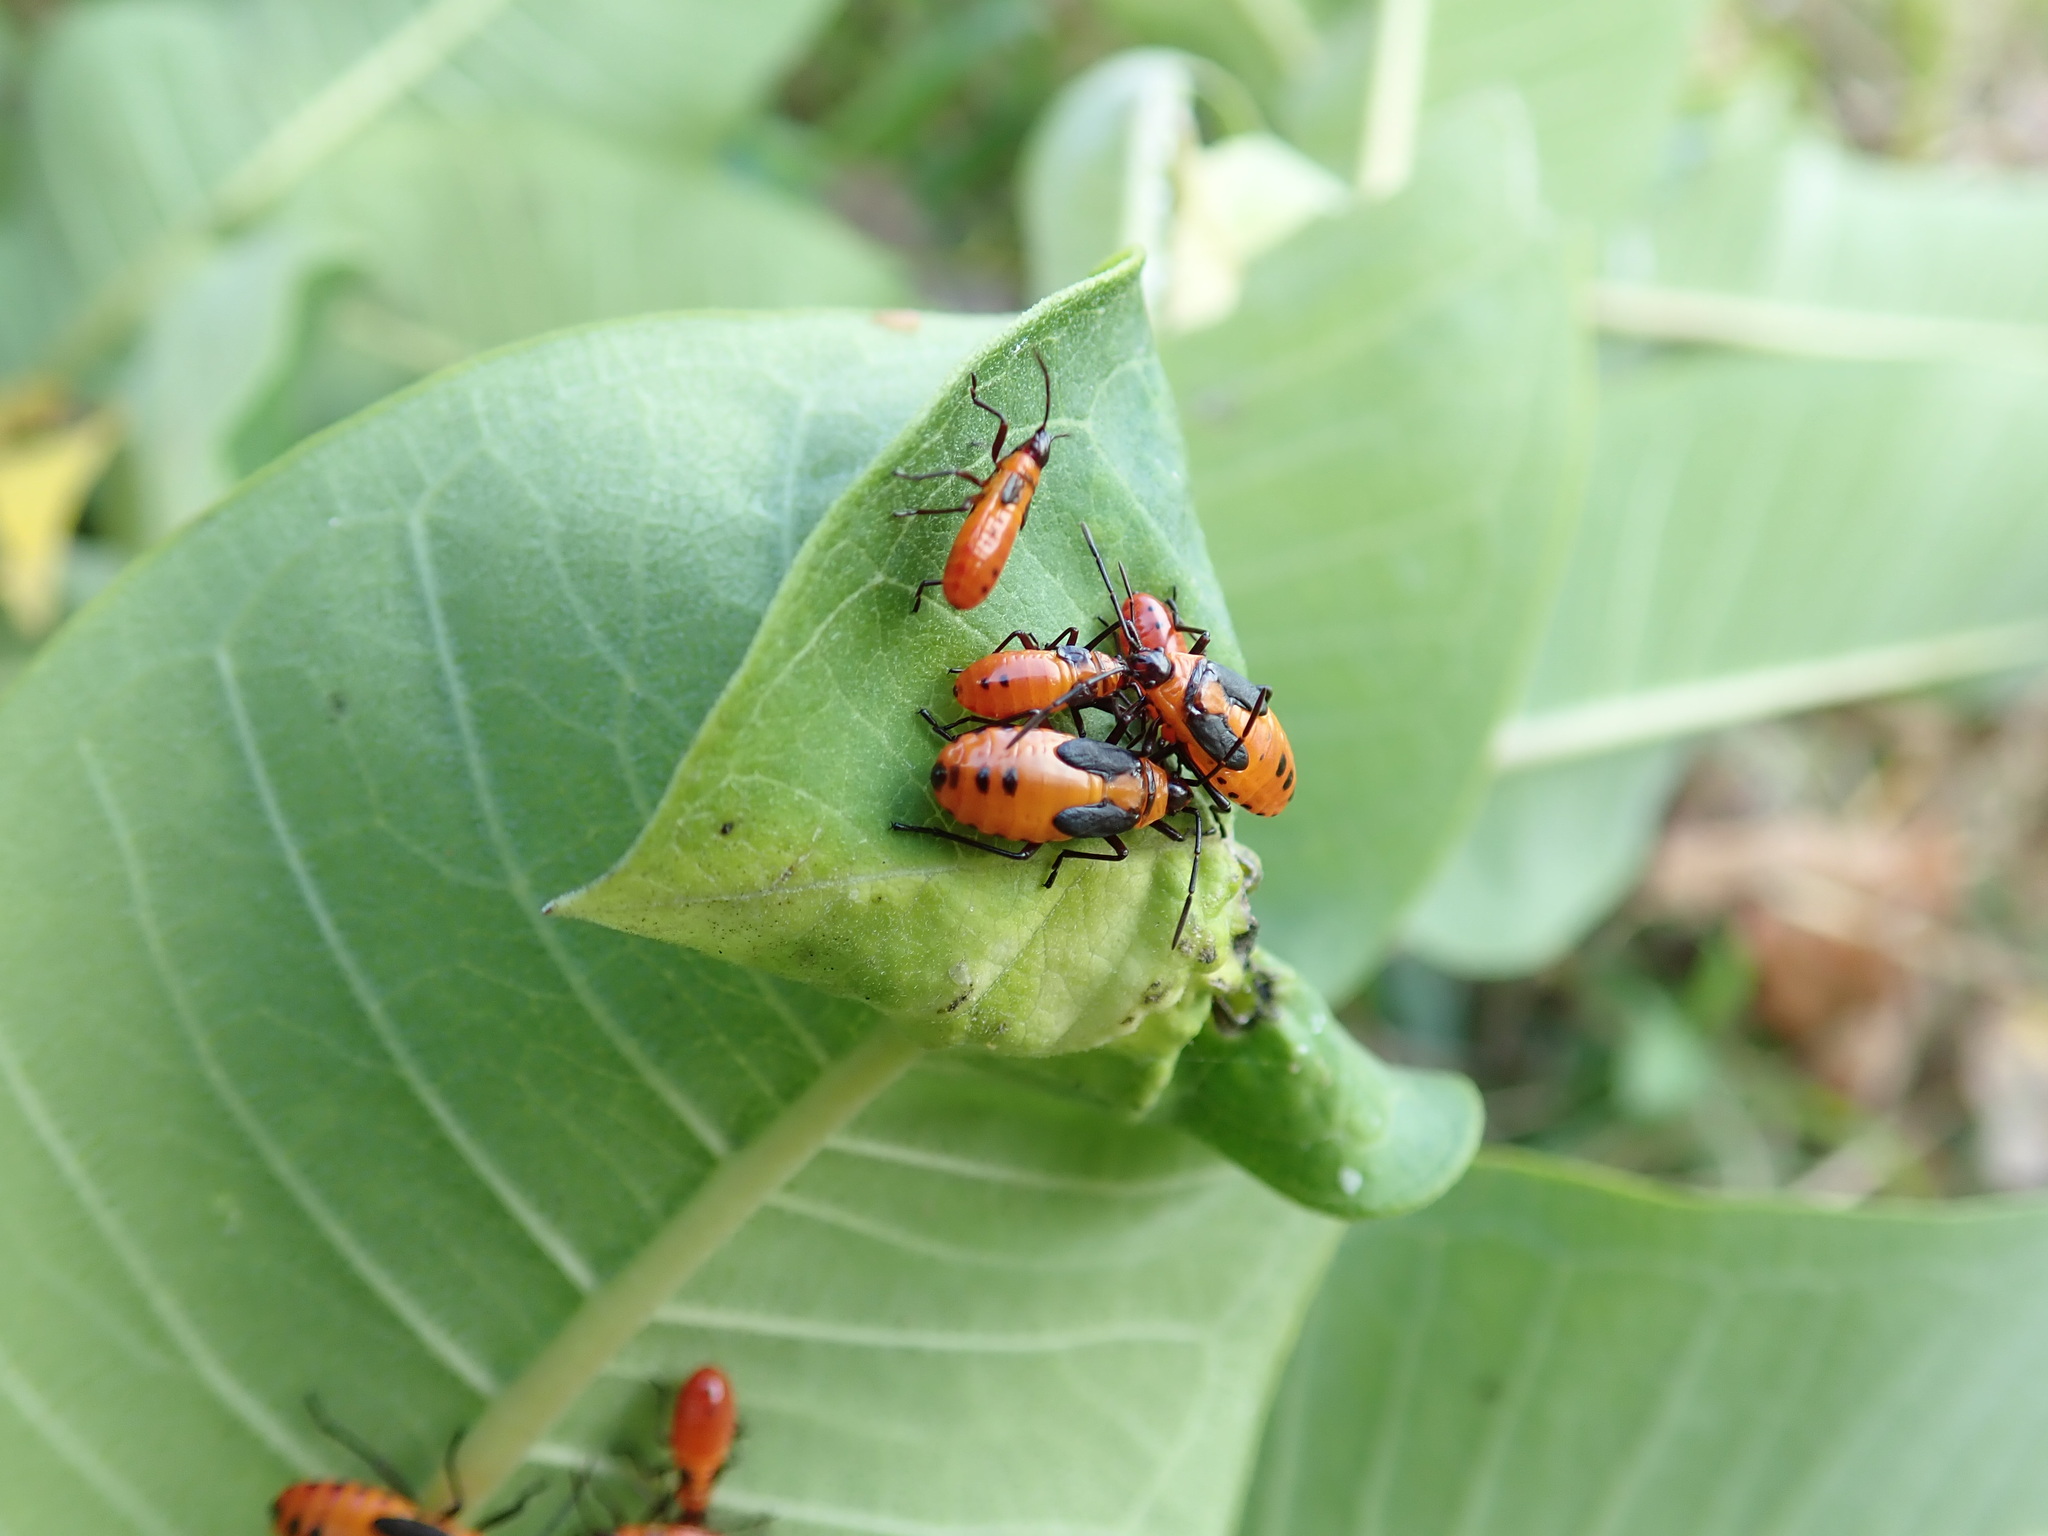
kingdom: Animalia
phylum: Arthropoda
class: Insecta
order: Hemiptera
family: Lygaeidae
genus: Oncopeltus
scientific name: Oncopeltus fasciatus
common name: Large milkweed bug
